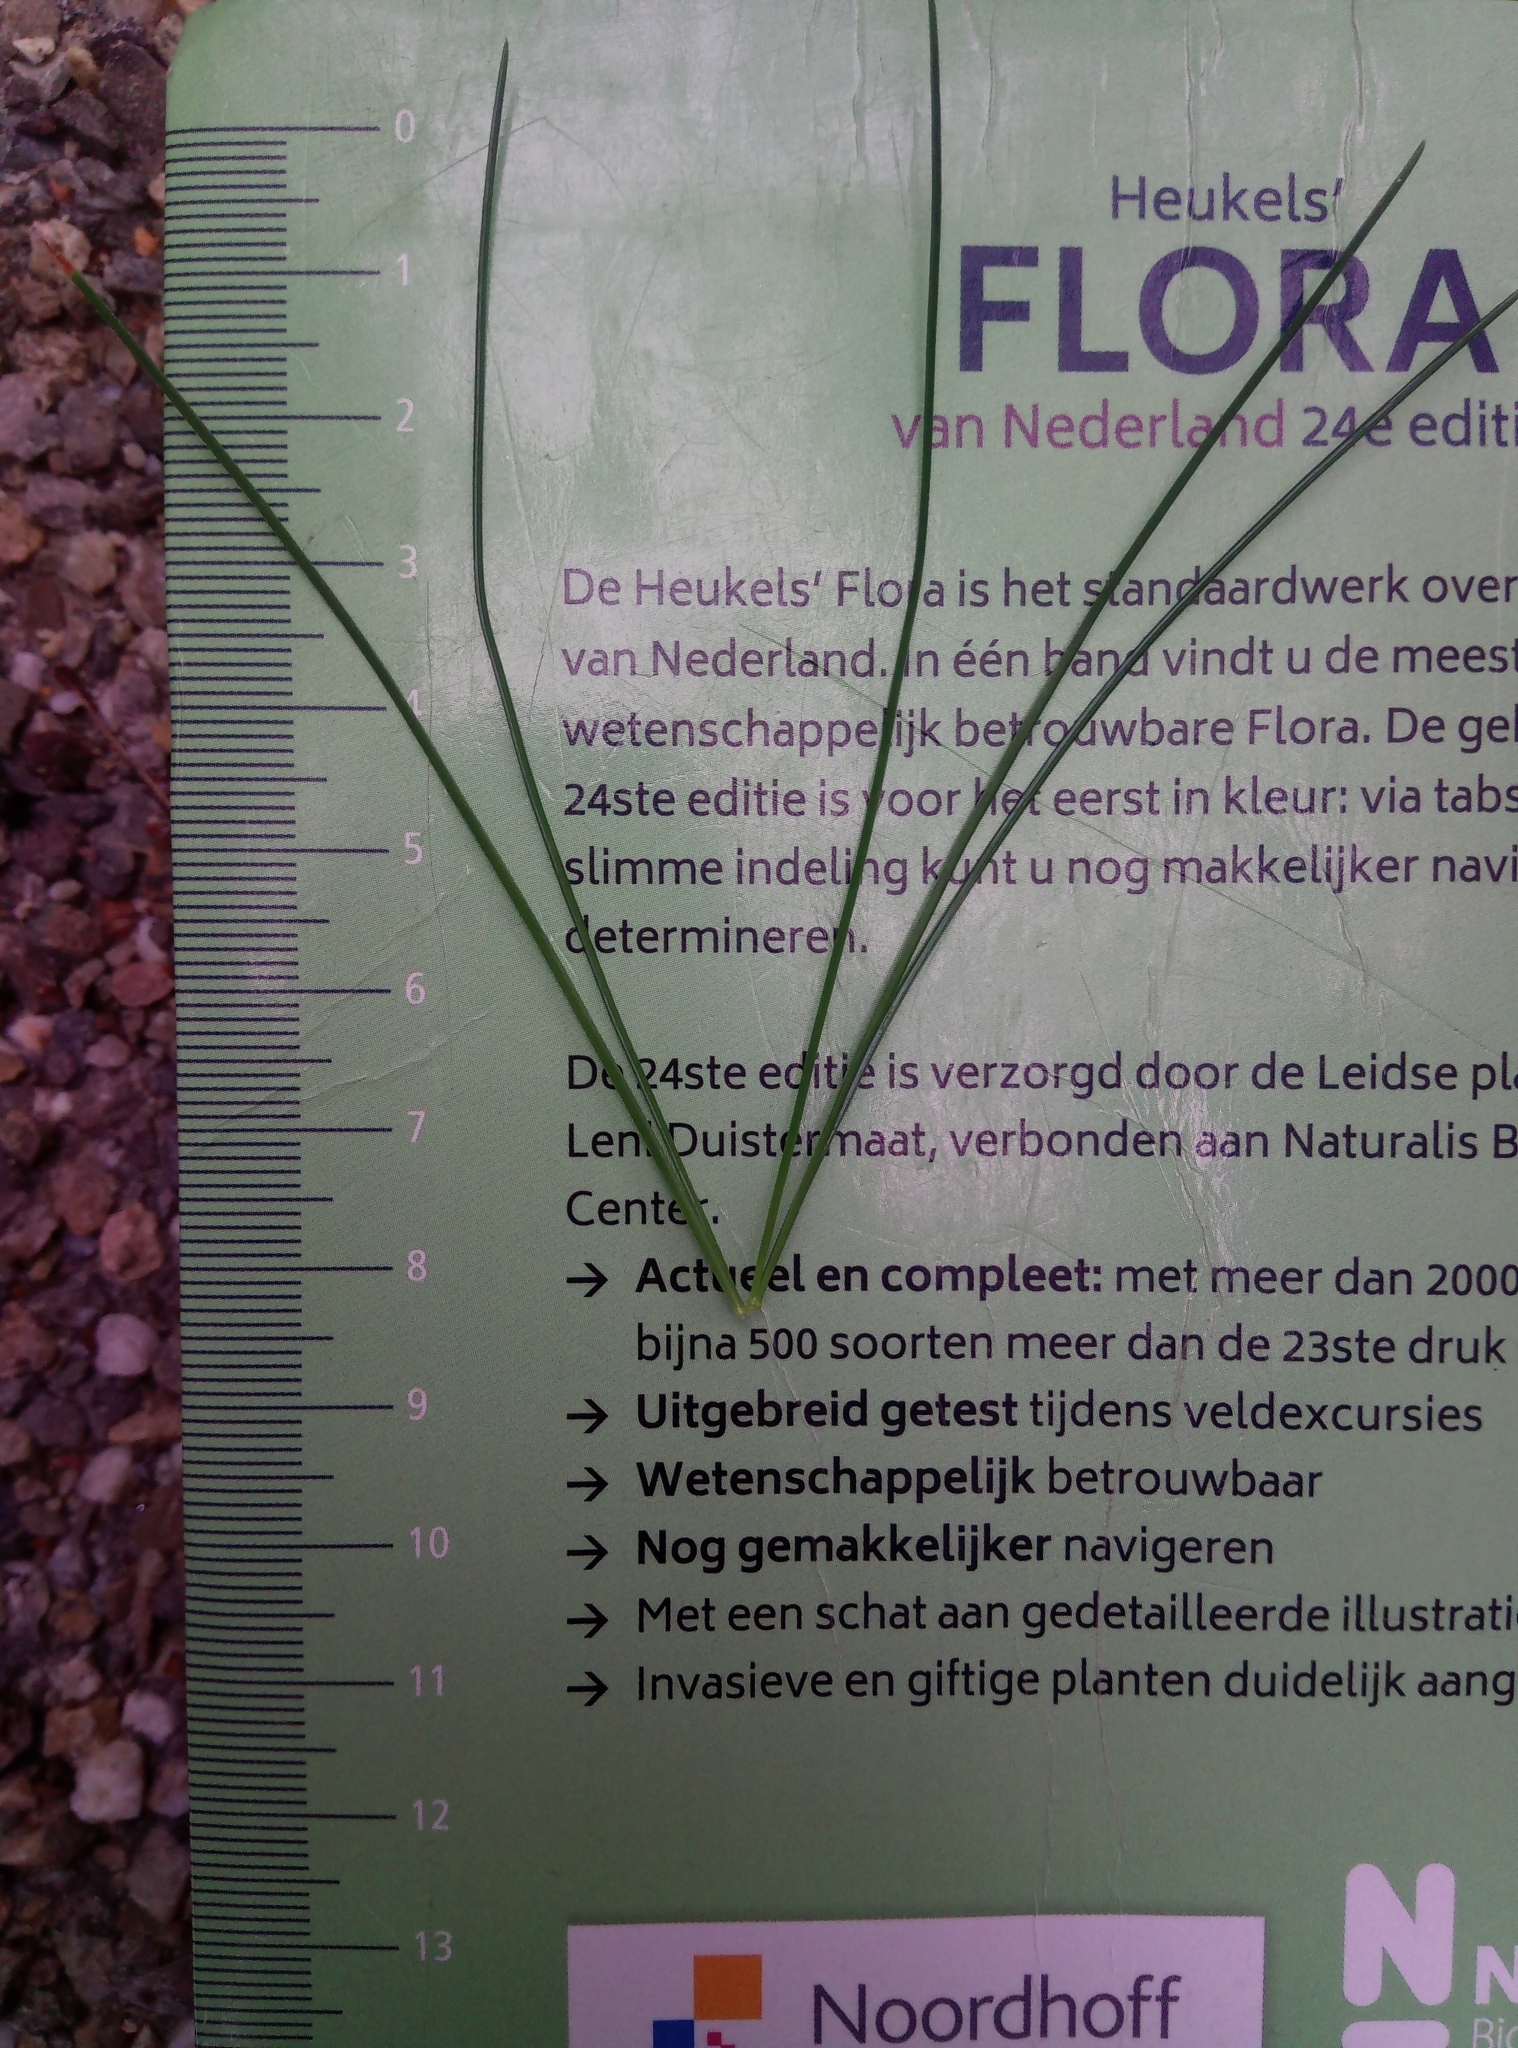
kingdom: Plantae
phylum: Tracheophyta
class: Pinopsida
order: Pinales
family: Pinaceae
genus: Pinus
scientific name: Pinus strobus
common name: Weymouth pine
